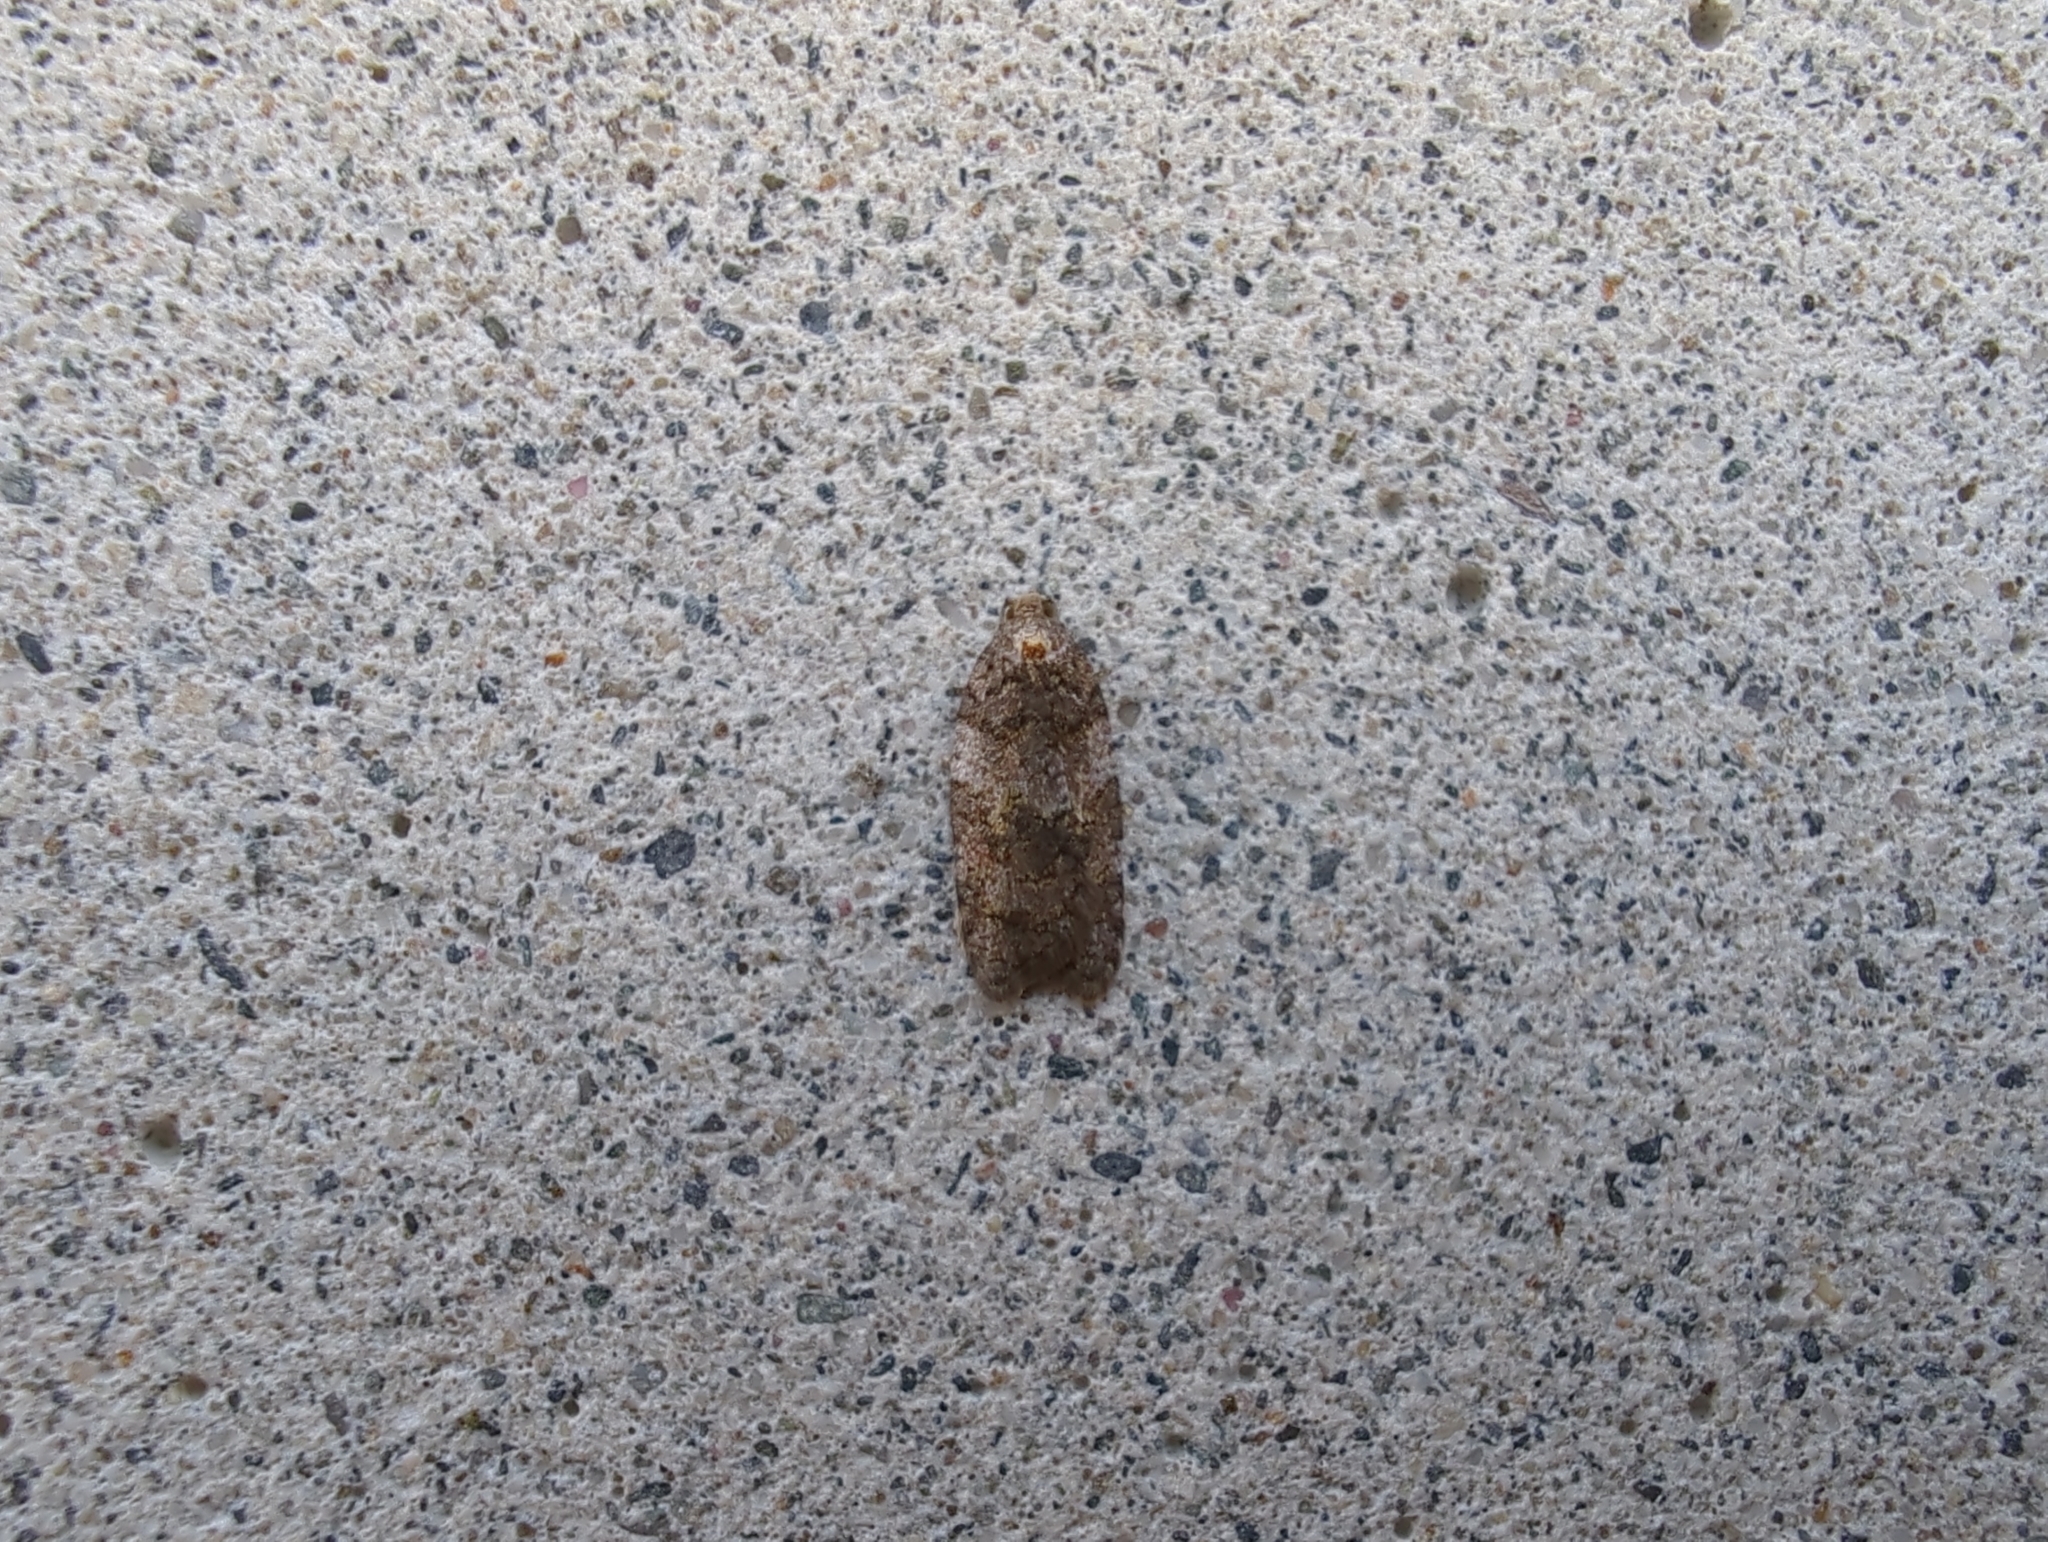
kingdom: Animalia
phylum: Arthropoda
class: Insecta
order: Lepidoptera
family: Tortricidae
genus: Acleris
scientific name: Acleris gloveranus
